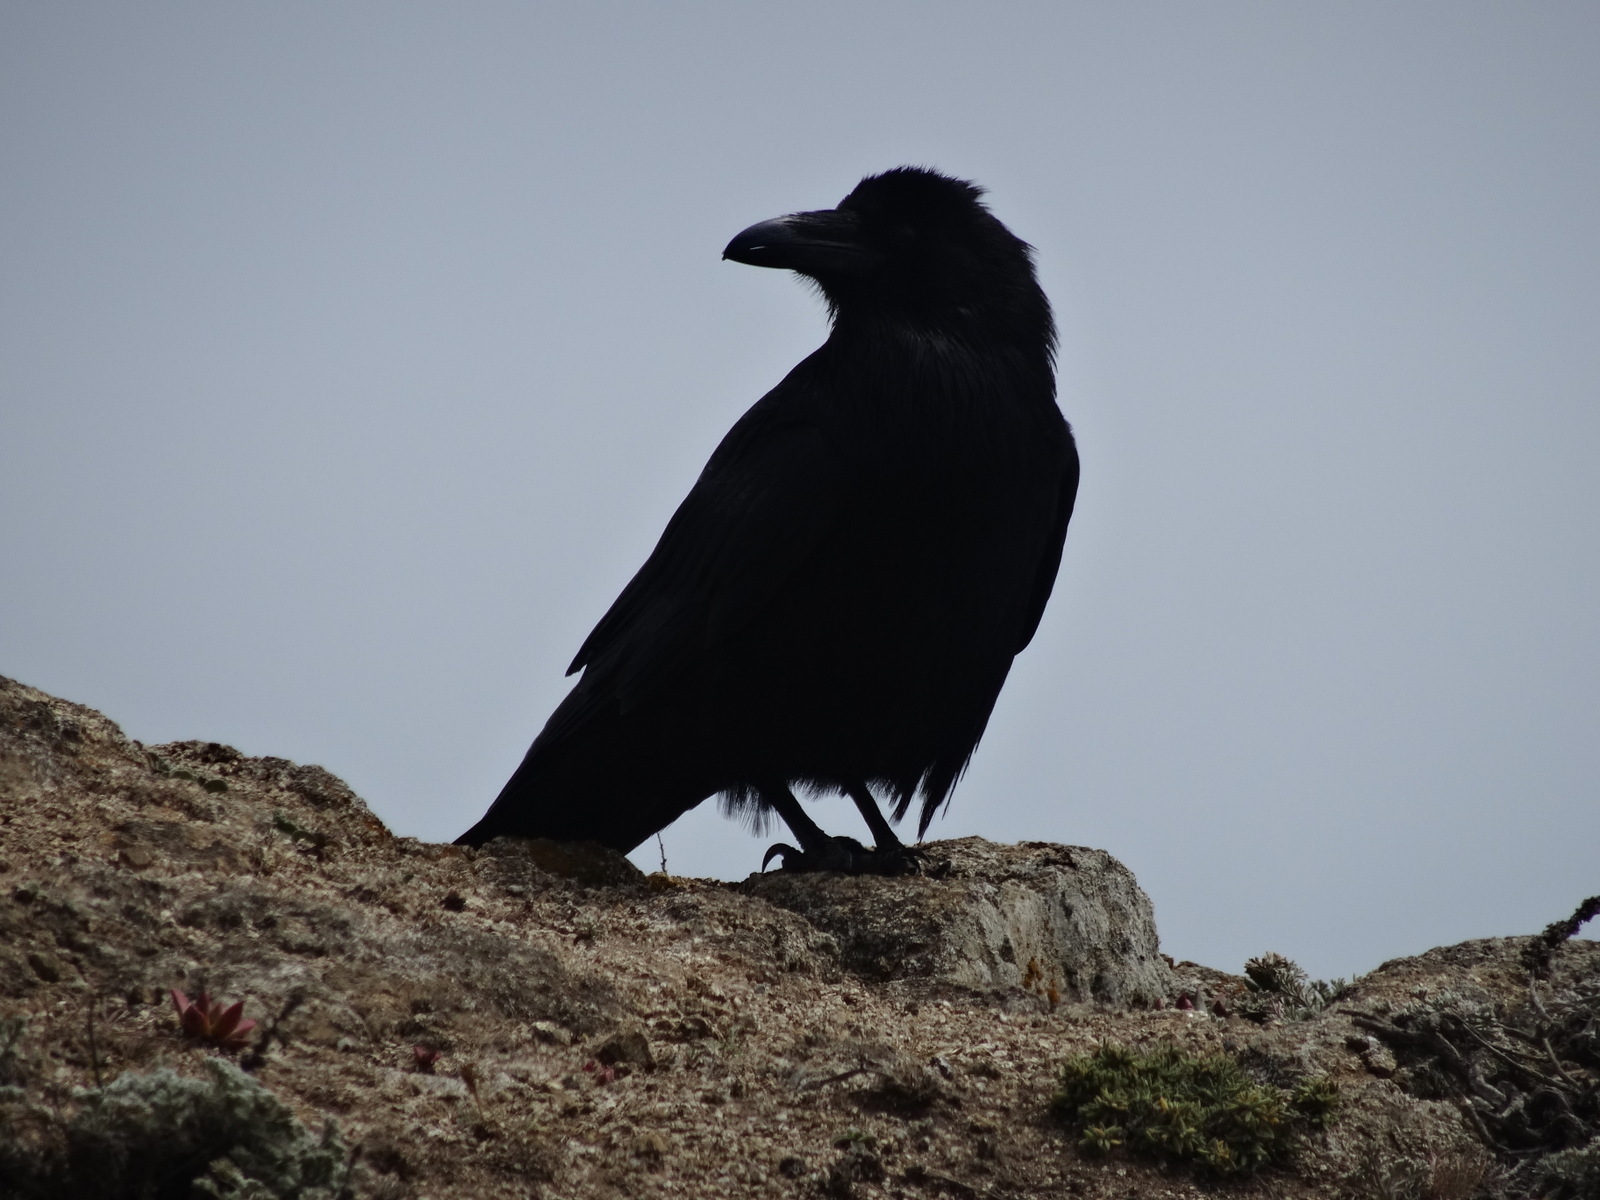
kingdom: Animalia
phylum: Chordata
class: Aves
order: Passeriformes
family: Corvidae
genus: Corvus
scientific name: Corvus corax
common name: Common raven
